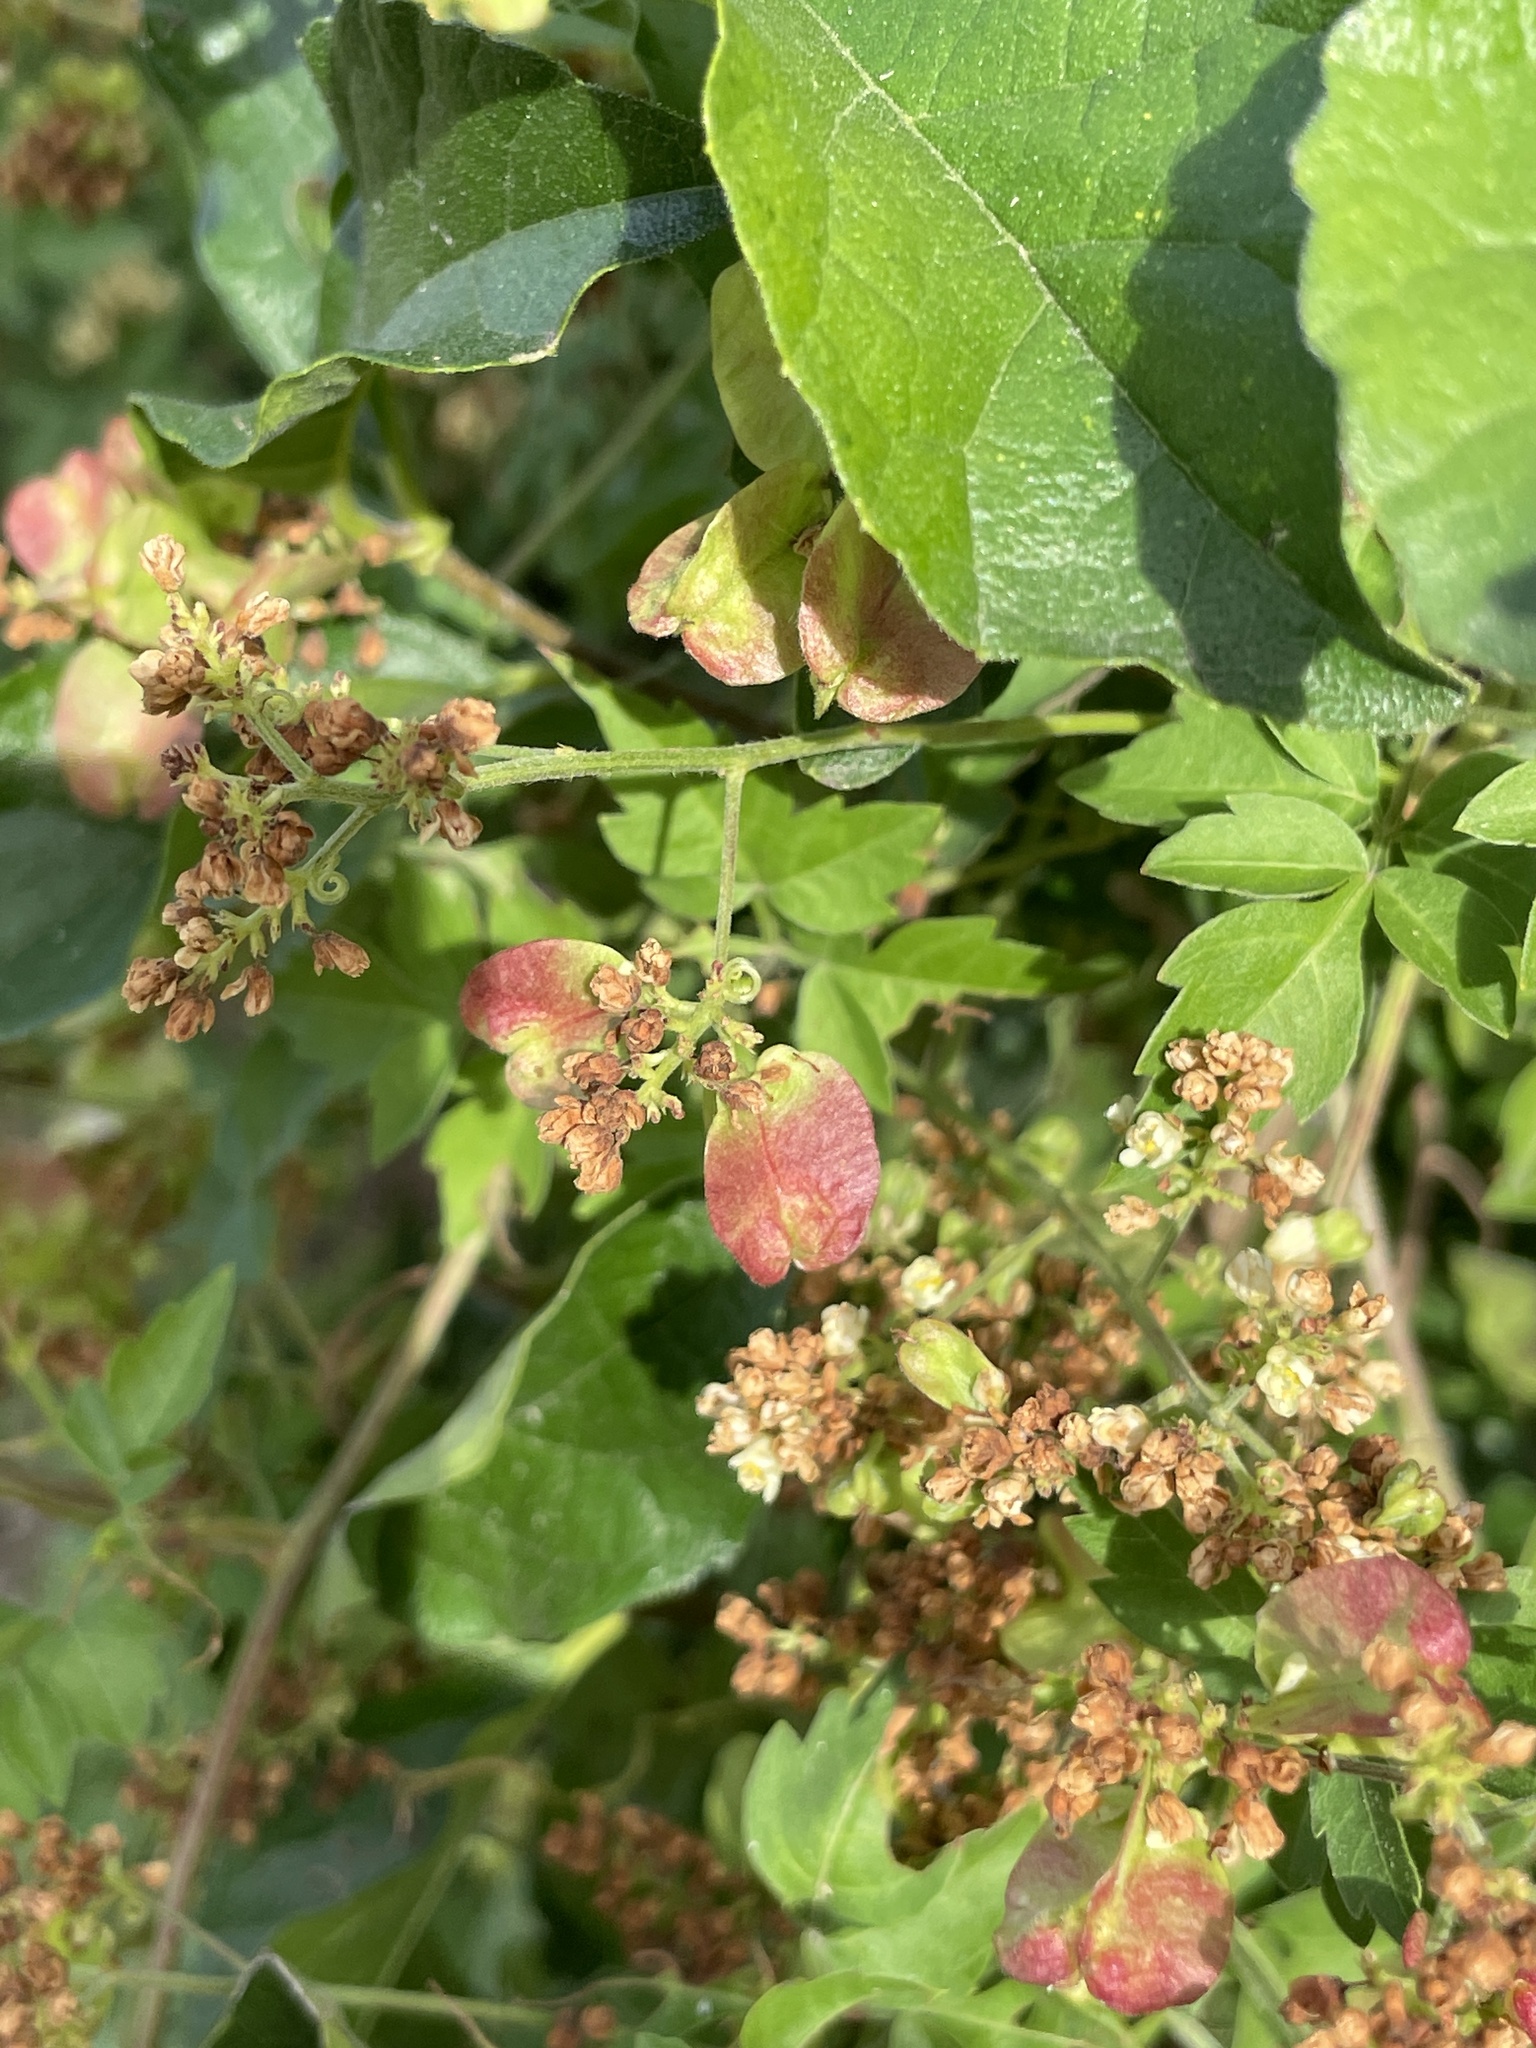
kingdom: Plantae
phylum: Tracheophyta
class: Magnoliopsida
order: Sapindales
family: Sapindaceae
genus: Serjania
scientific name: Serjania brachycarpa
